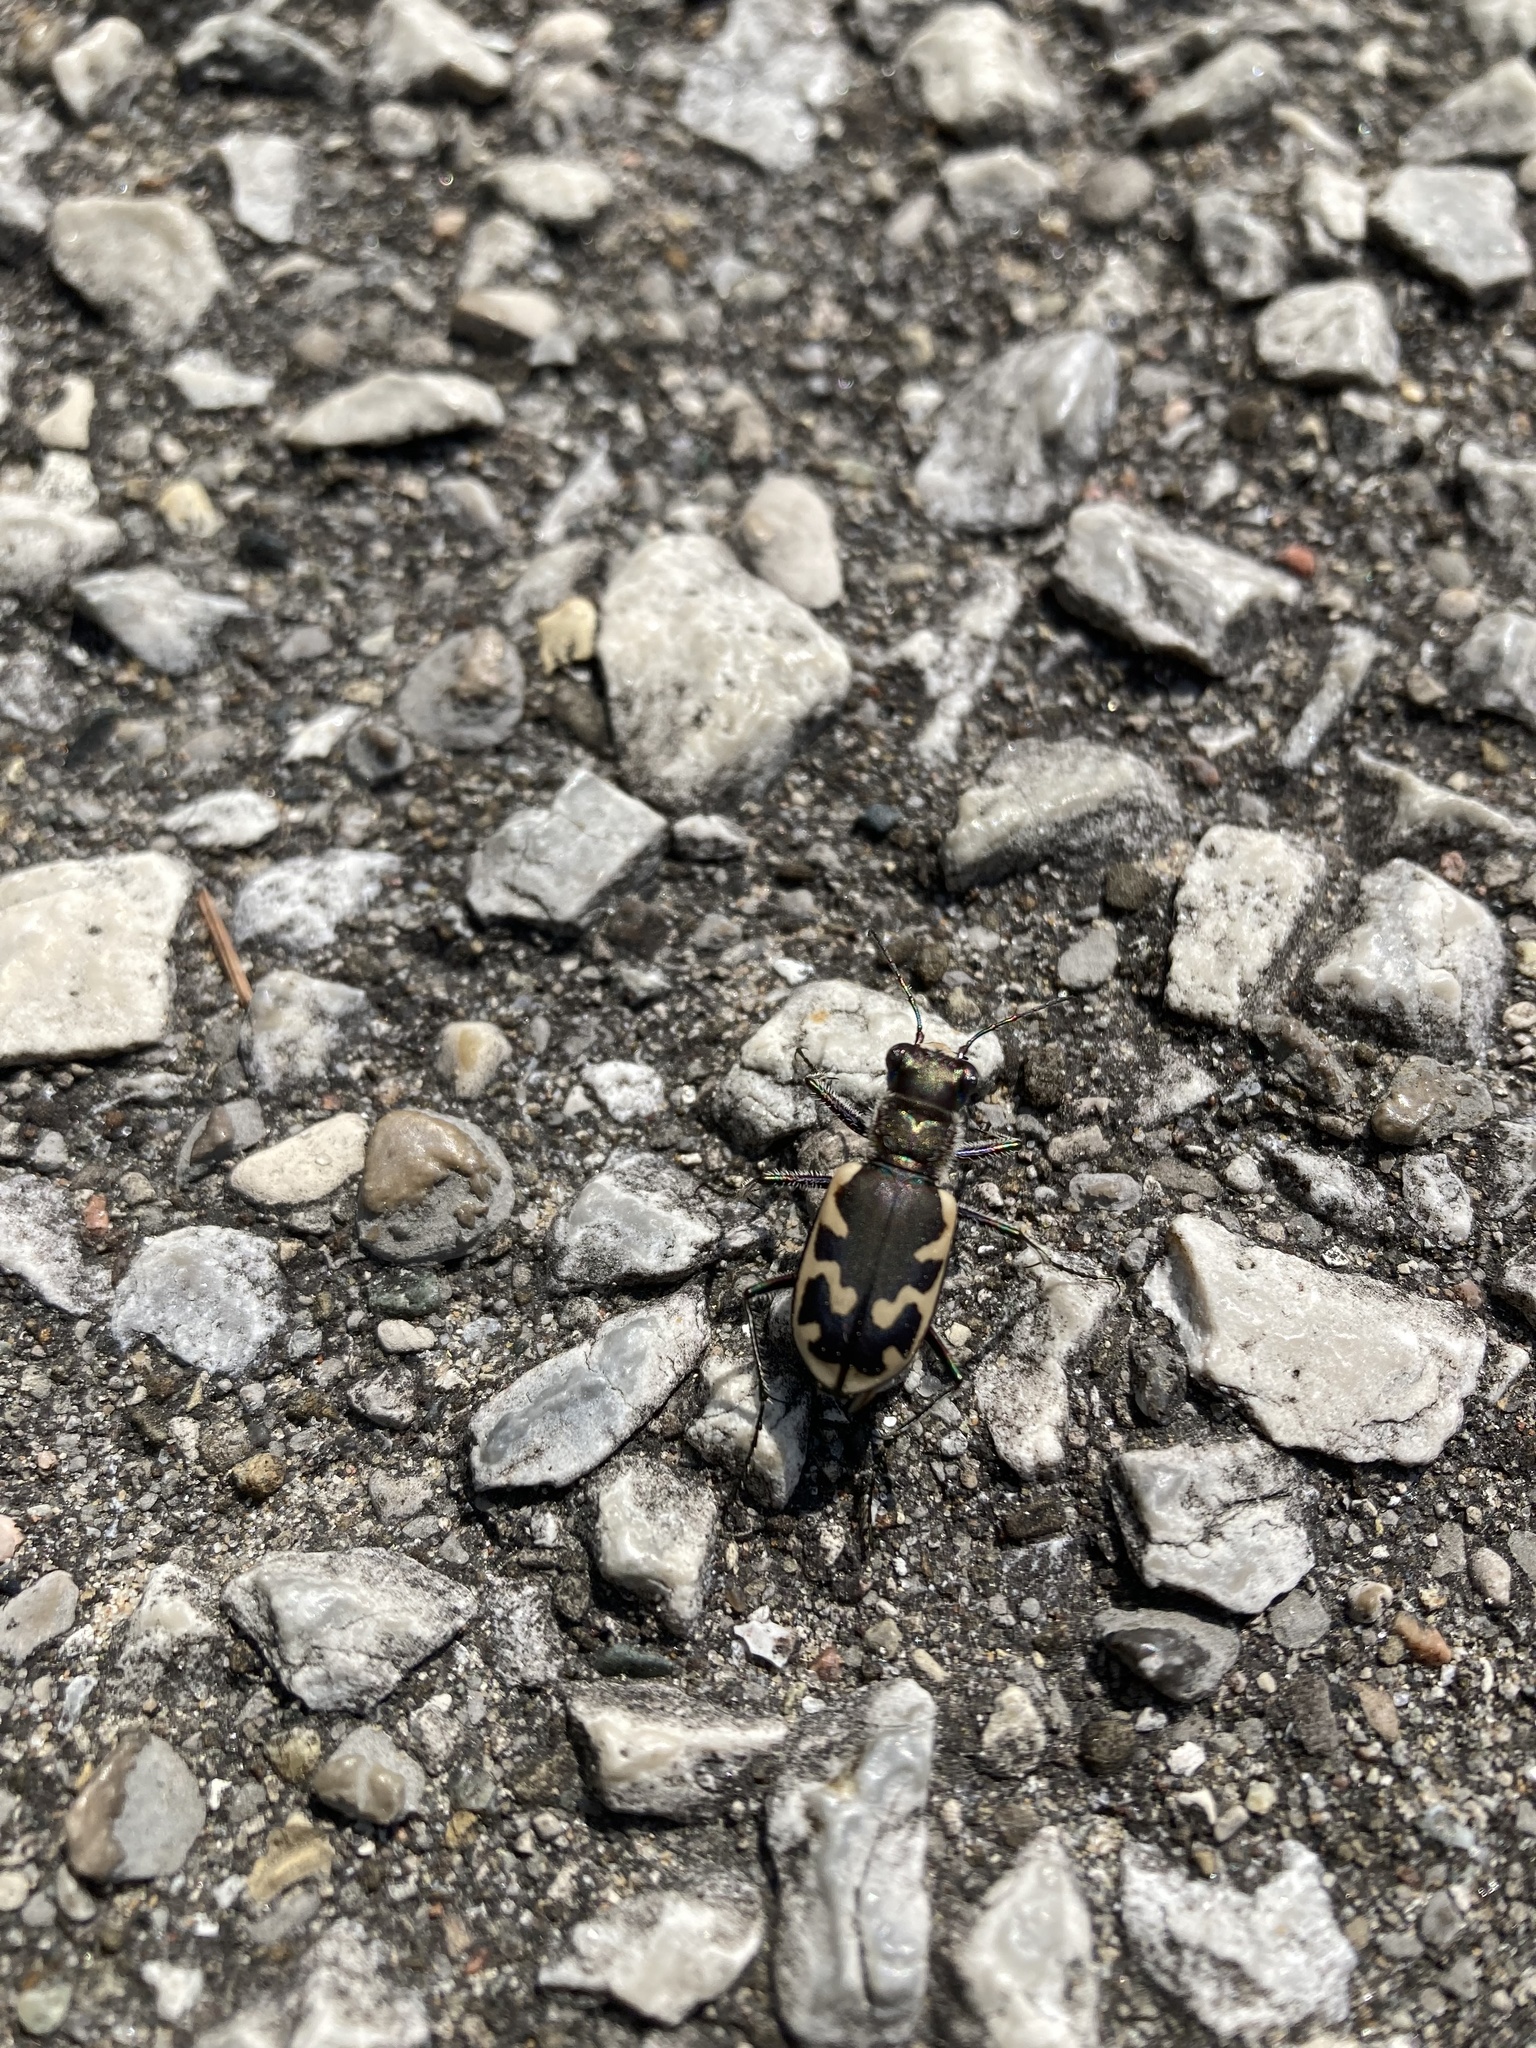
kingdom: Animalia
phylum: Arthropoda
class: Insecta
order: Coleoptera
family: Carabidae
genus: Cicindela
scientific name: Cicindela formosa
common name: Big sand tiger beetle
